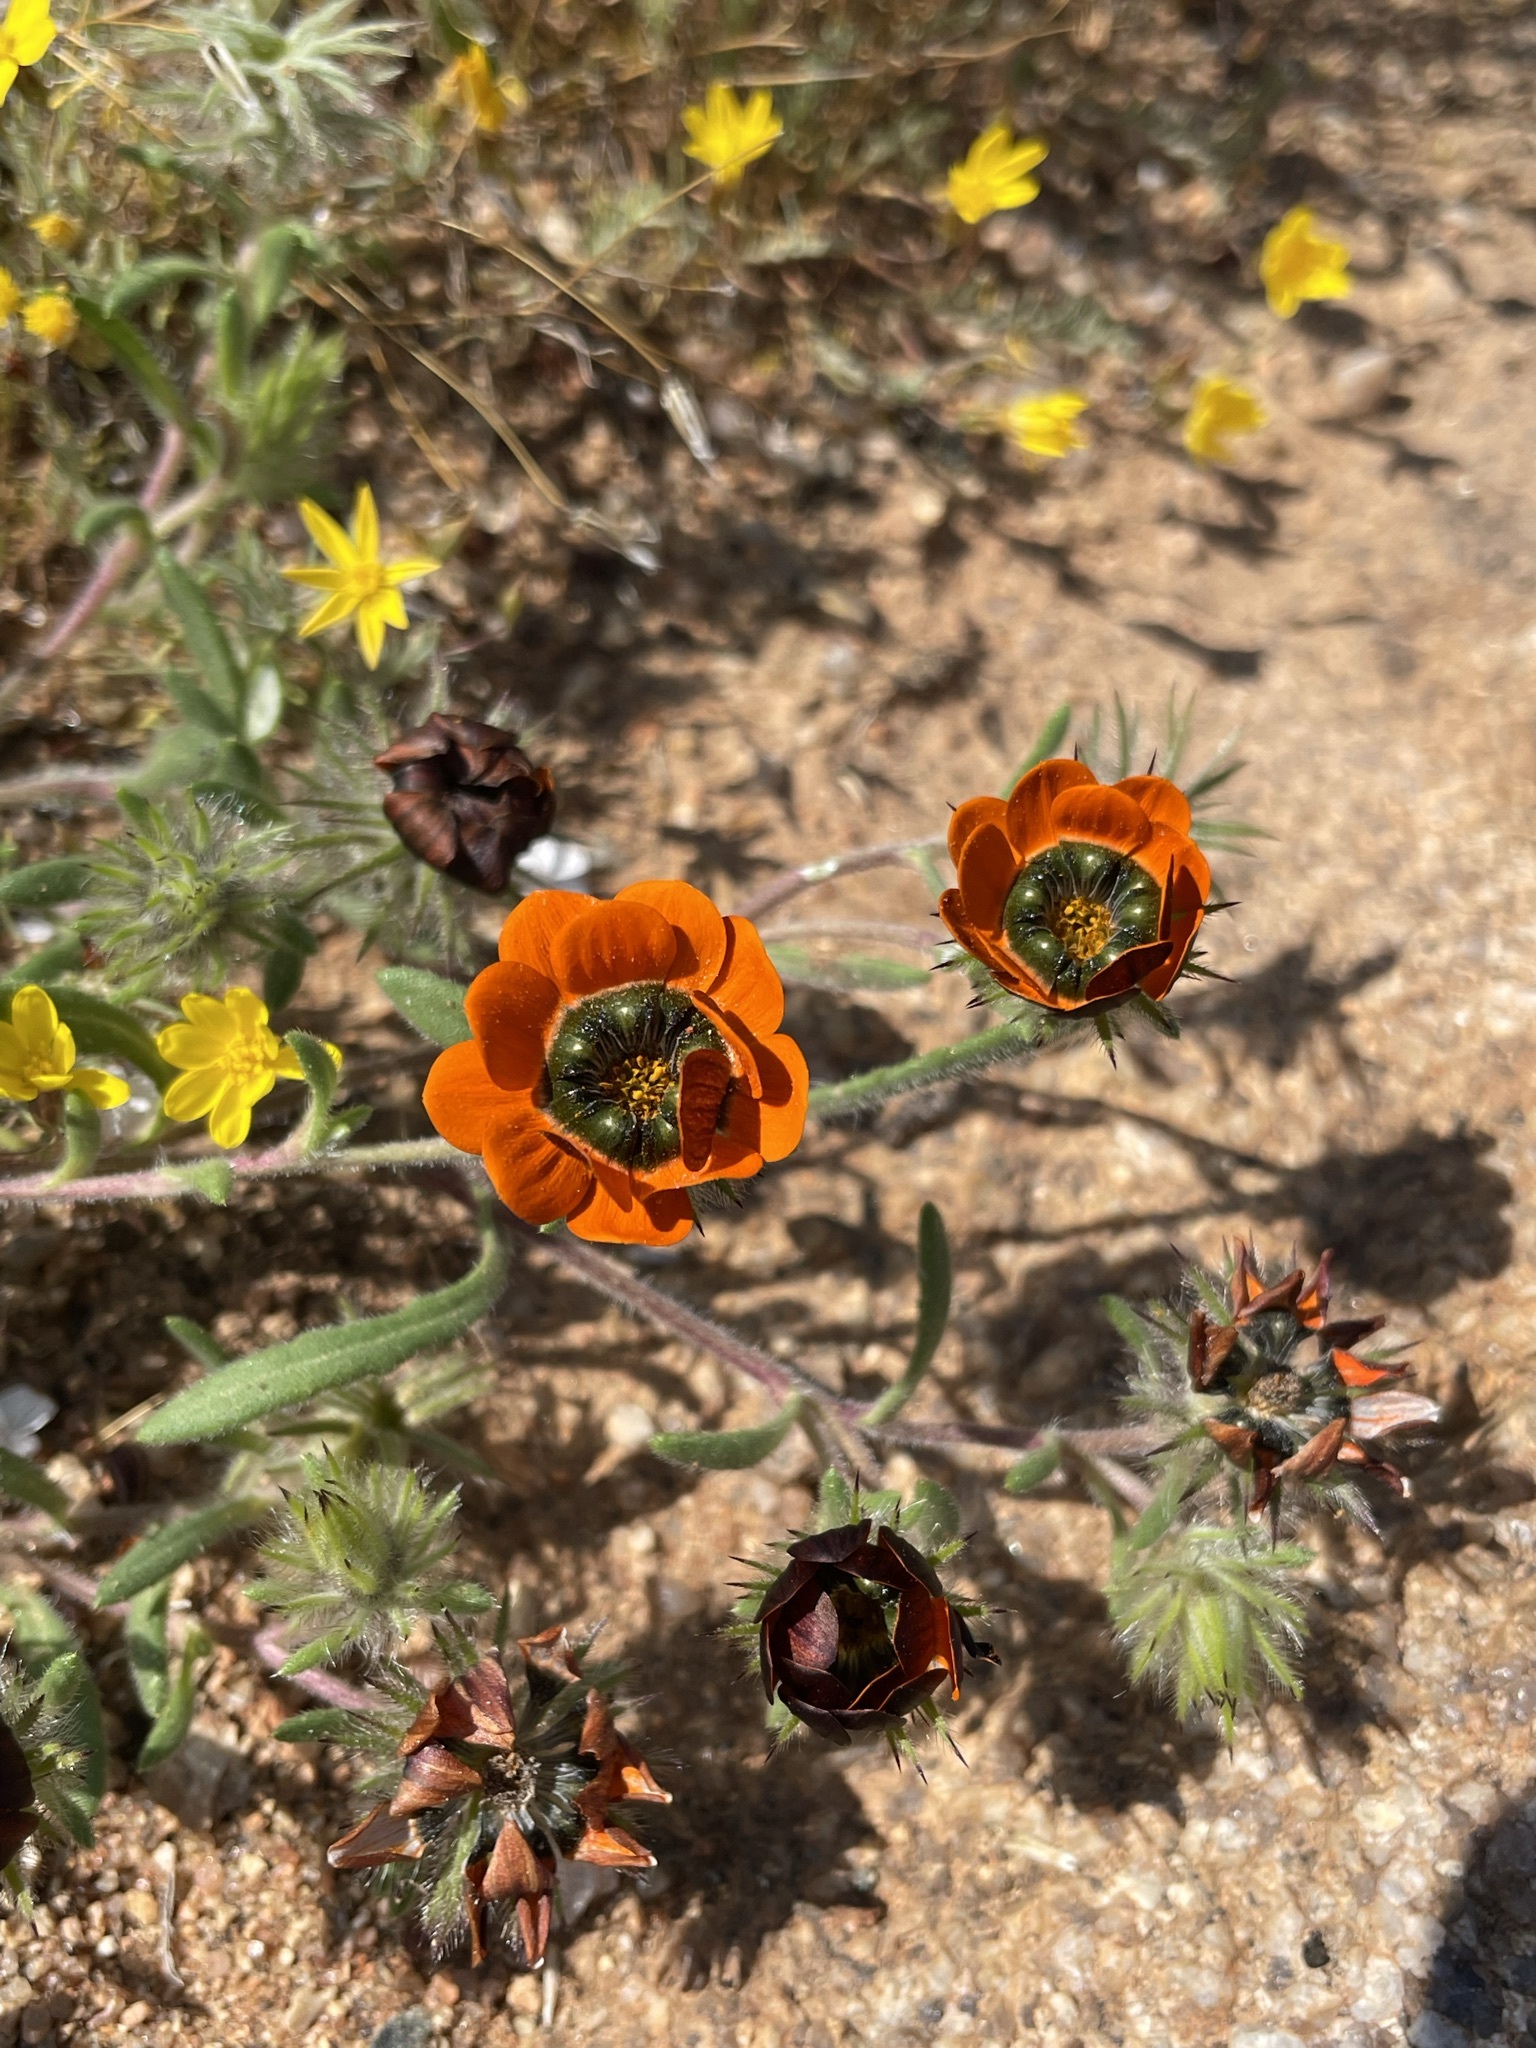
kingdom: Plantae
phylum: Tracheophyta
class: Magnoliopsida
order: Asterales
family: Asteraceae
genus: Gorteria
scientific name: Gorteria diffusa
